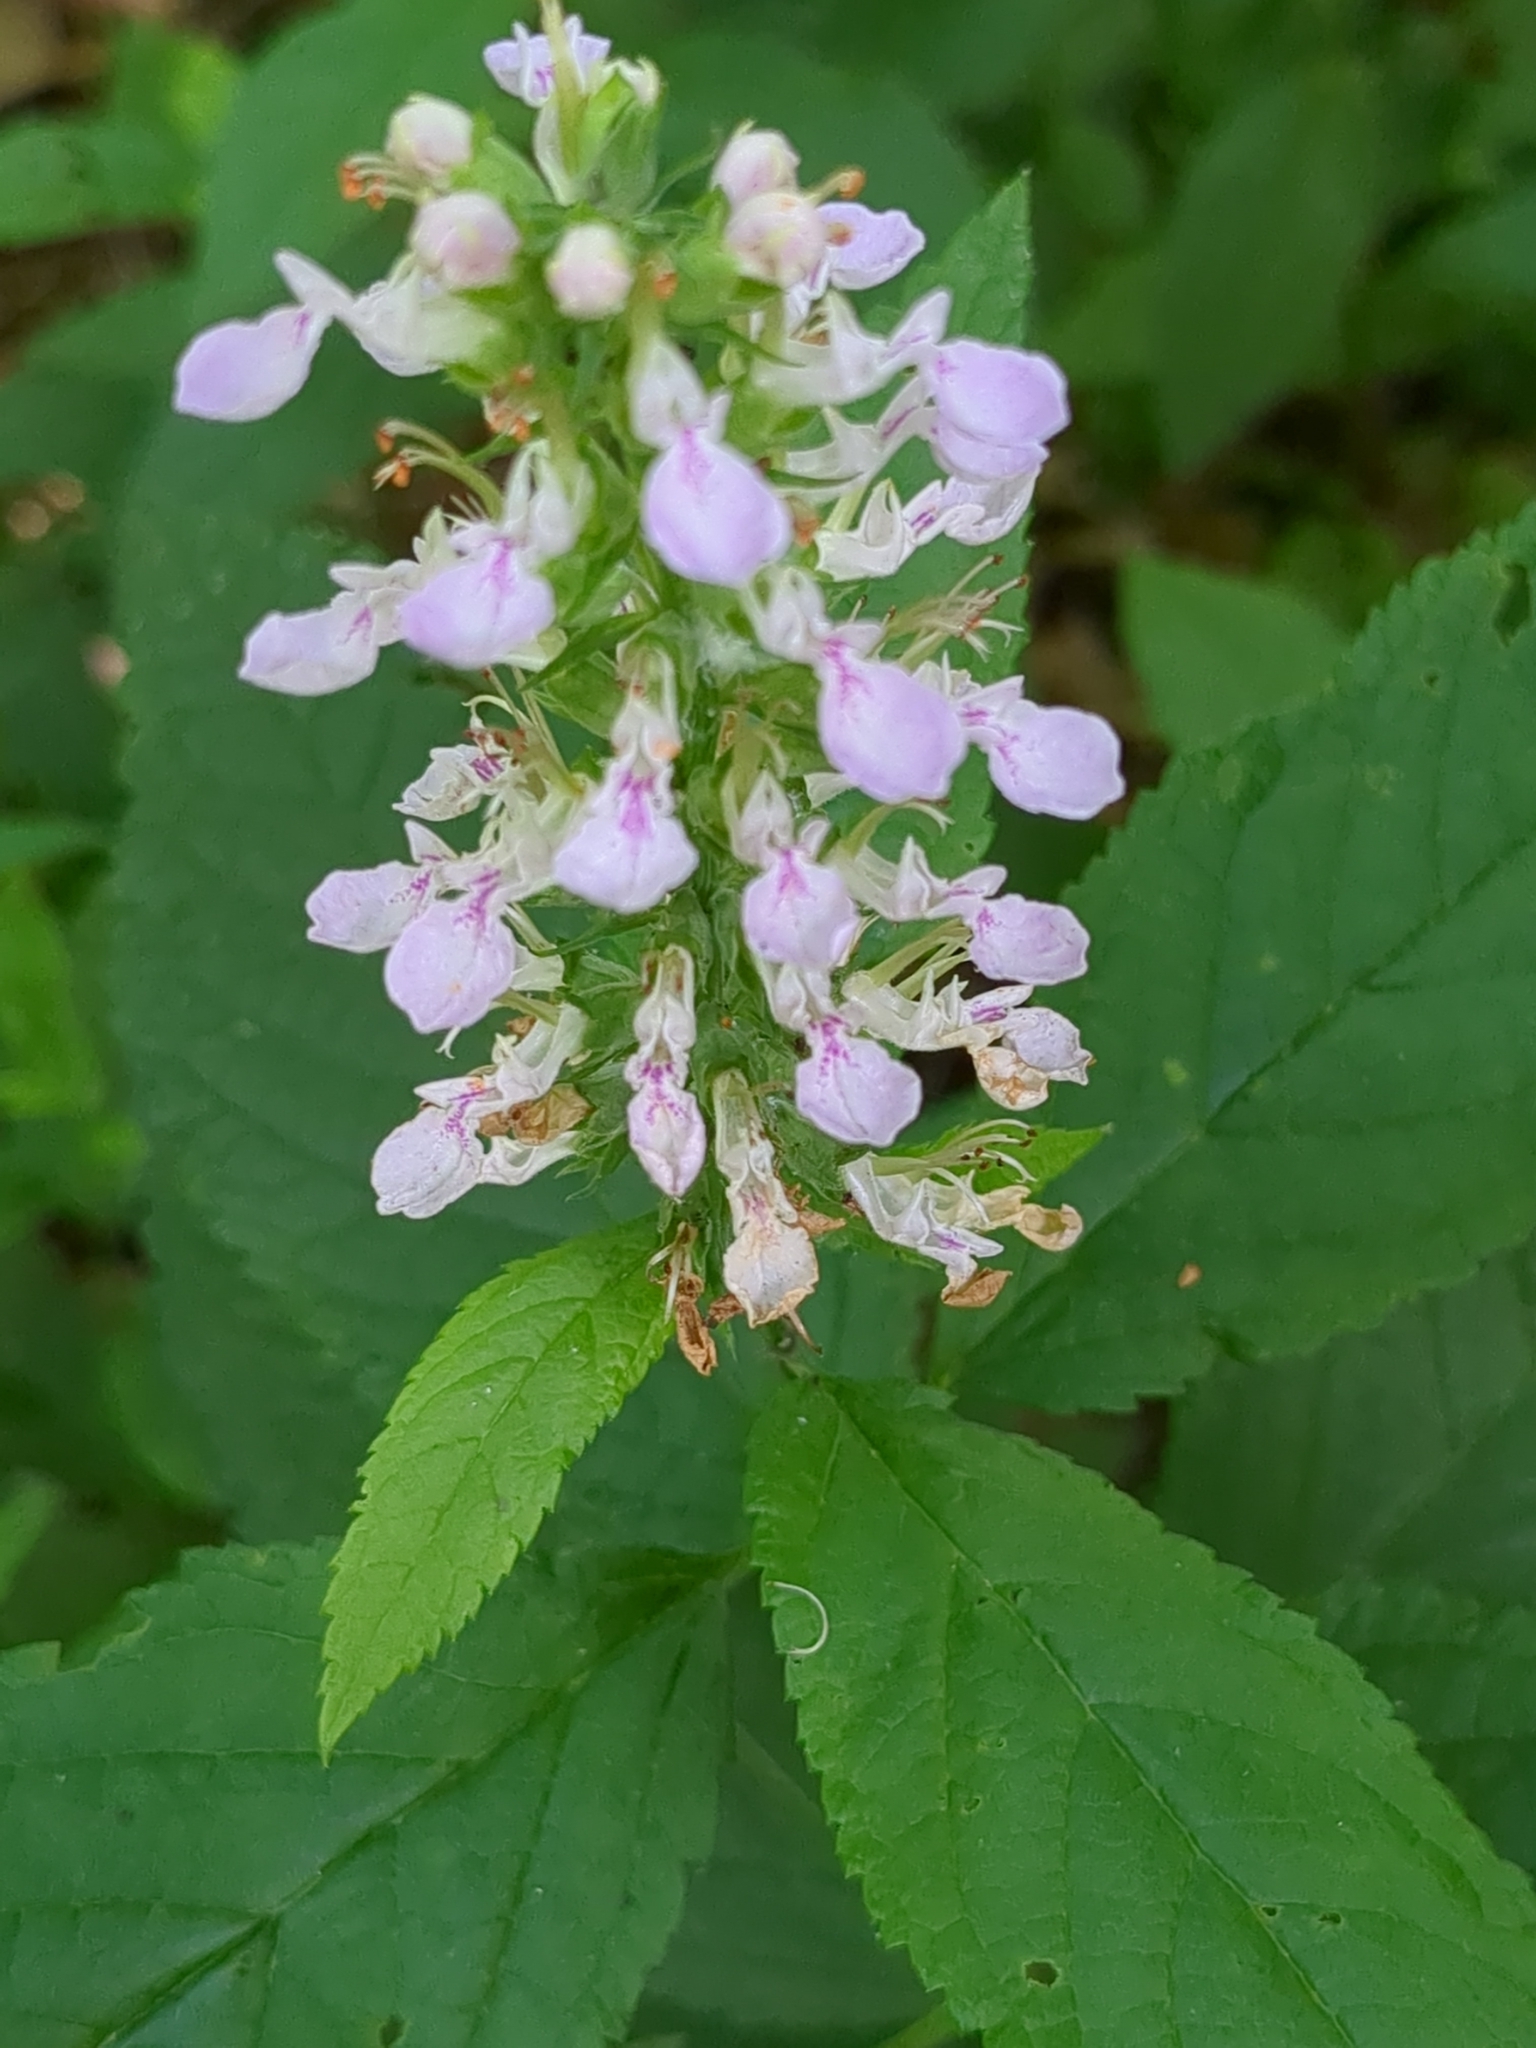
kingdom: Plantae
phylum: Tracheophyta
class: Magnoliopsida
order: Lamiales
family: Lamiaceae
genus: Teucrium
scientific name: Teucrium canadense
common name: American germander
